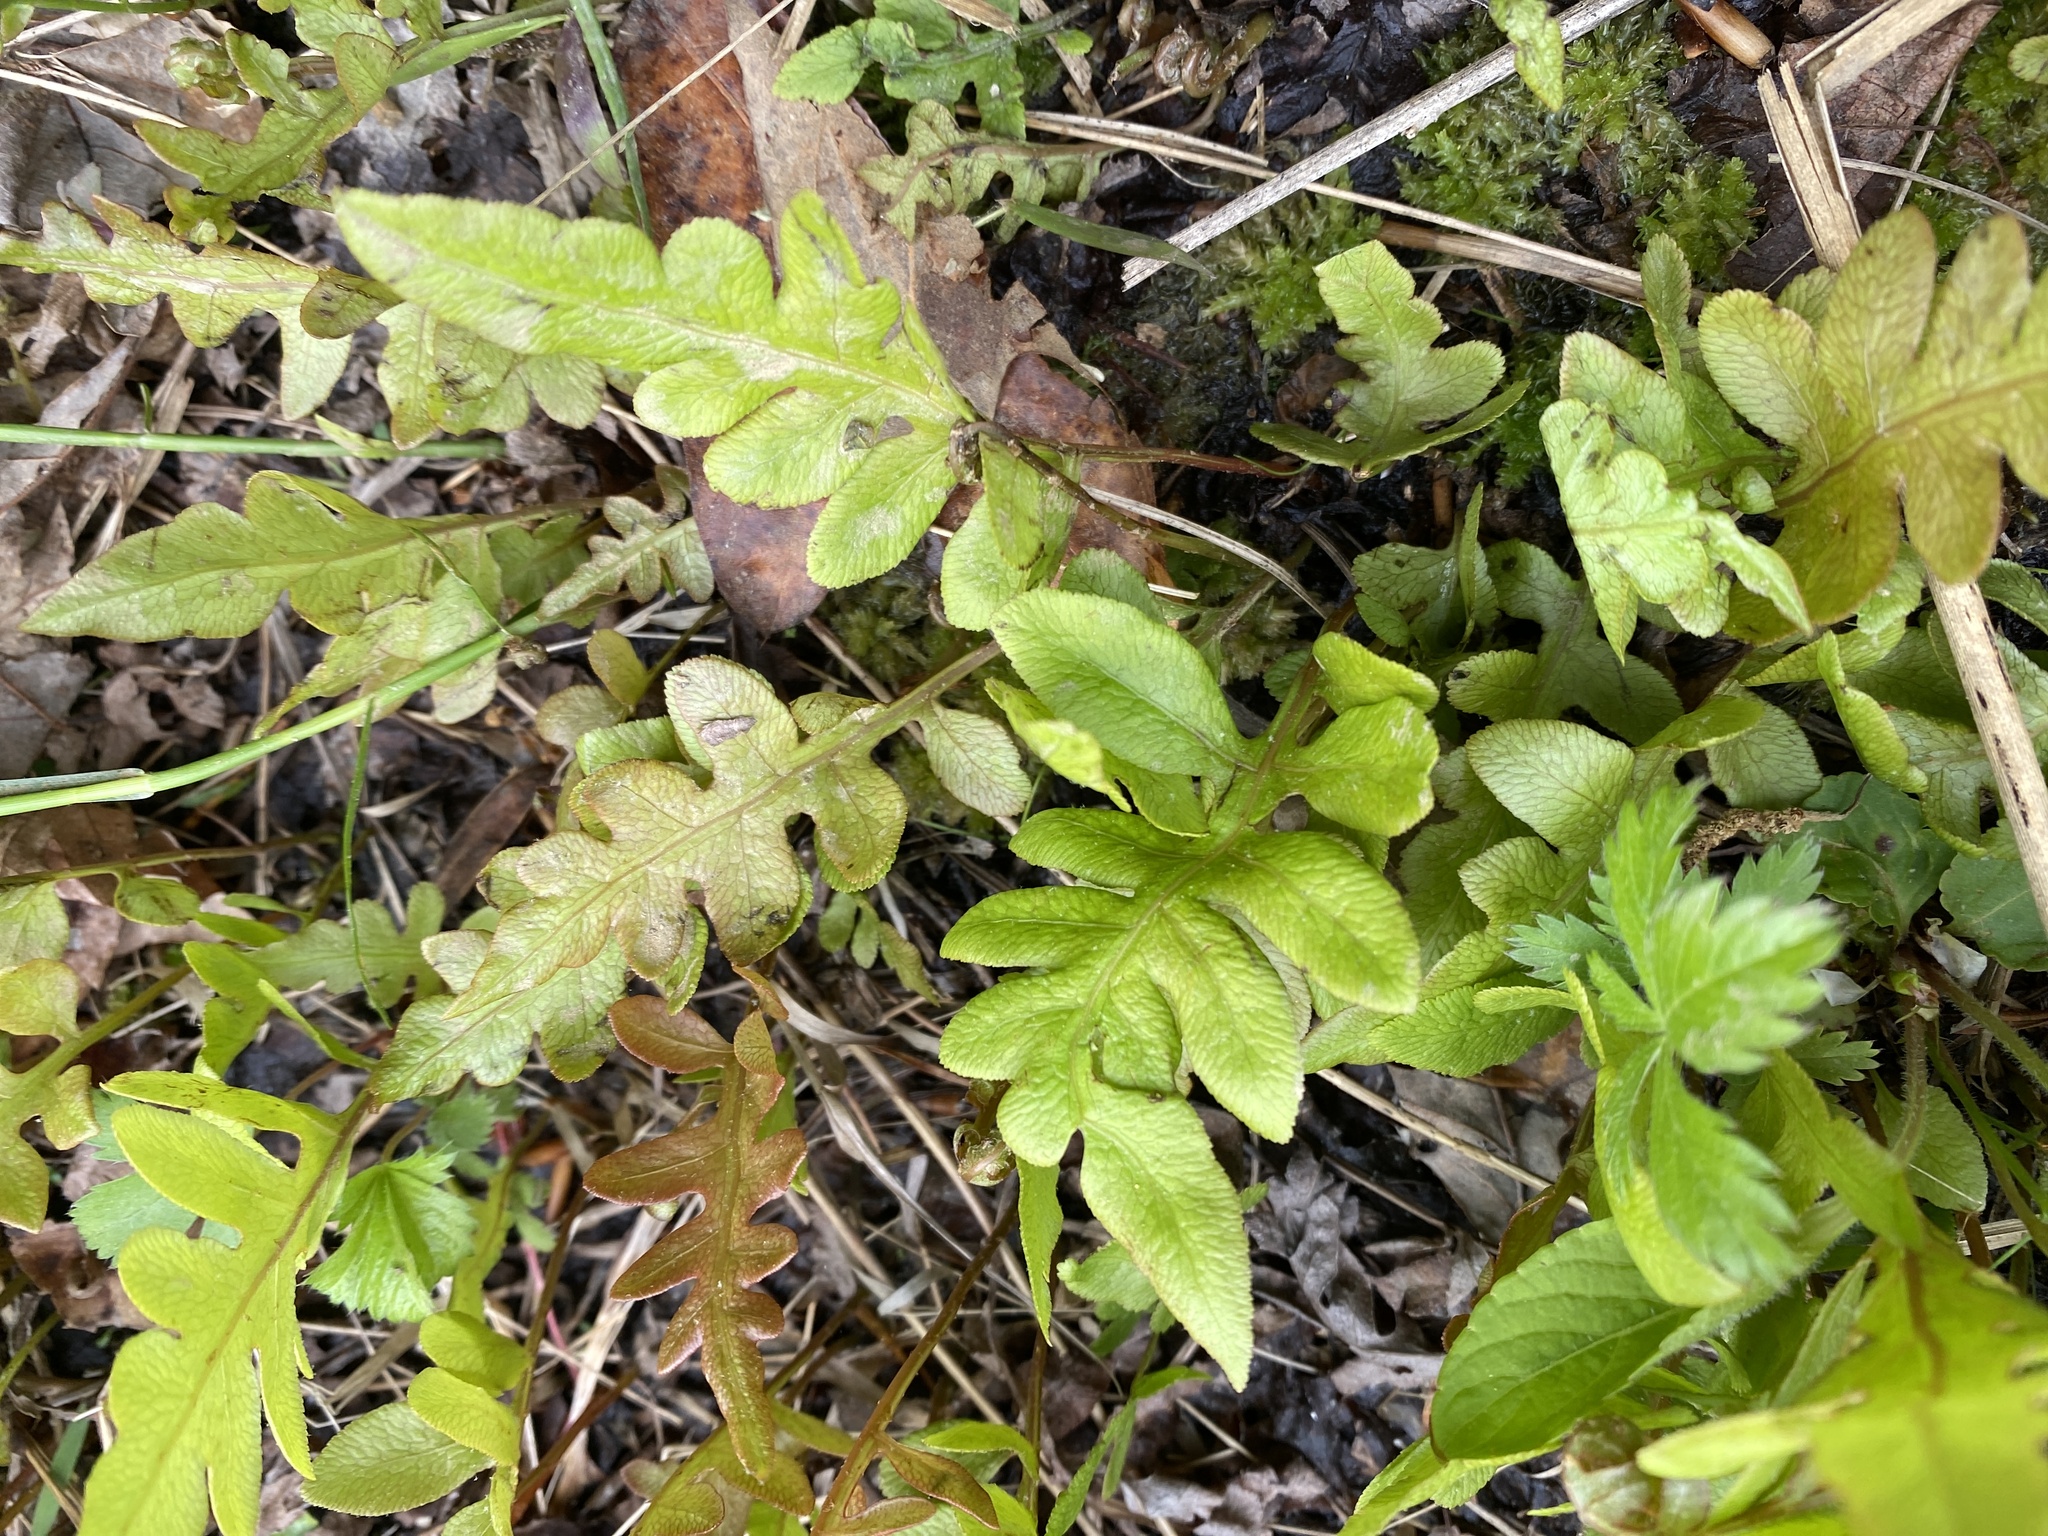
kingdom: Plantae
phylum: Tracheophyta
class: Polypodiopsida
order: Polypodiales
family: Blechnaceae
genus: Lorinseria
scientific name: Lorinseria areolata
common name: Dwarf chain fern
